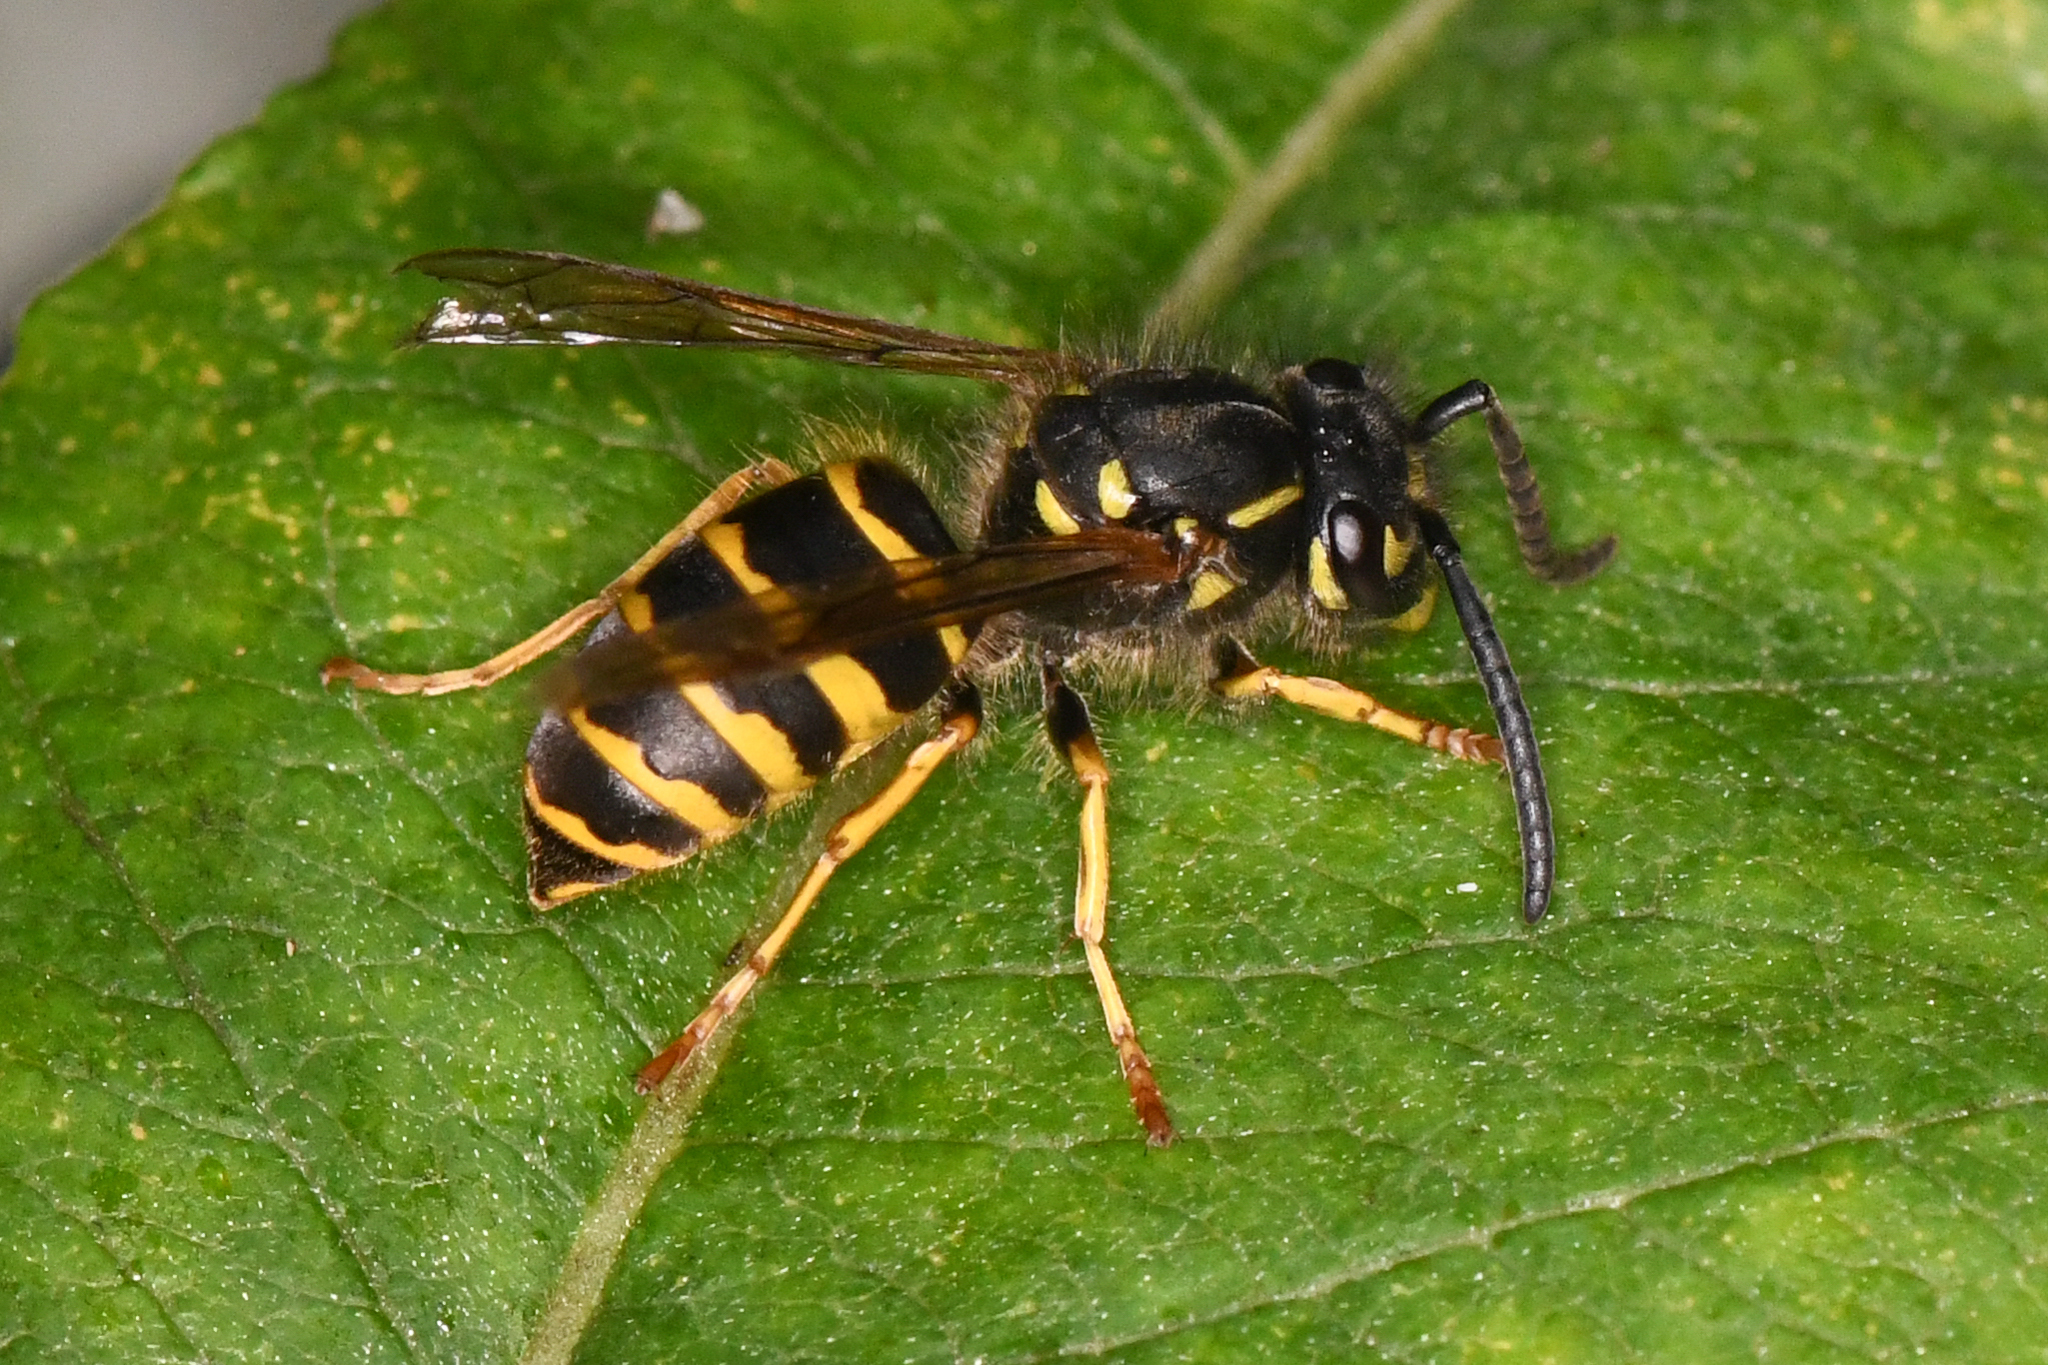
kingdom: Animalia
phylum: Arthropoda
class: Insecta
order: Hymenoptera
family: Vespidae
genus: Vespula
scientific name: Vespula alascensis
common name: Alaska yellowjacket
